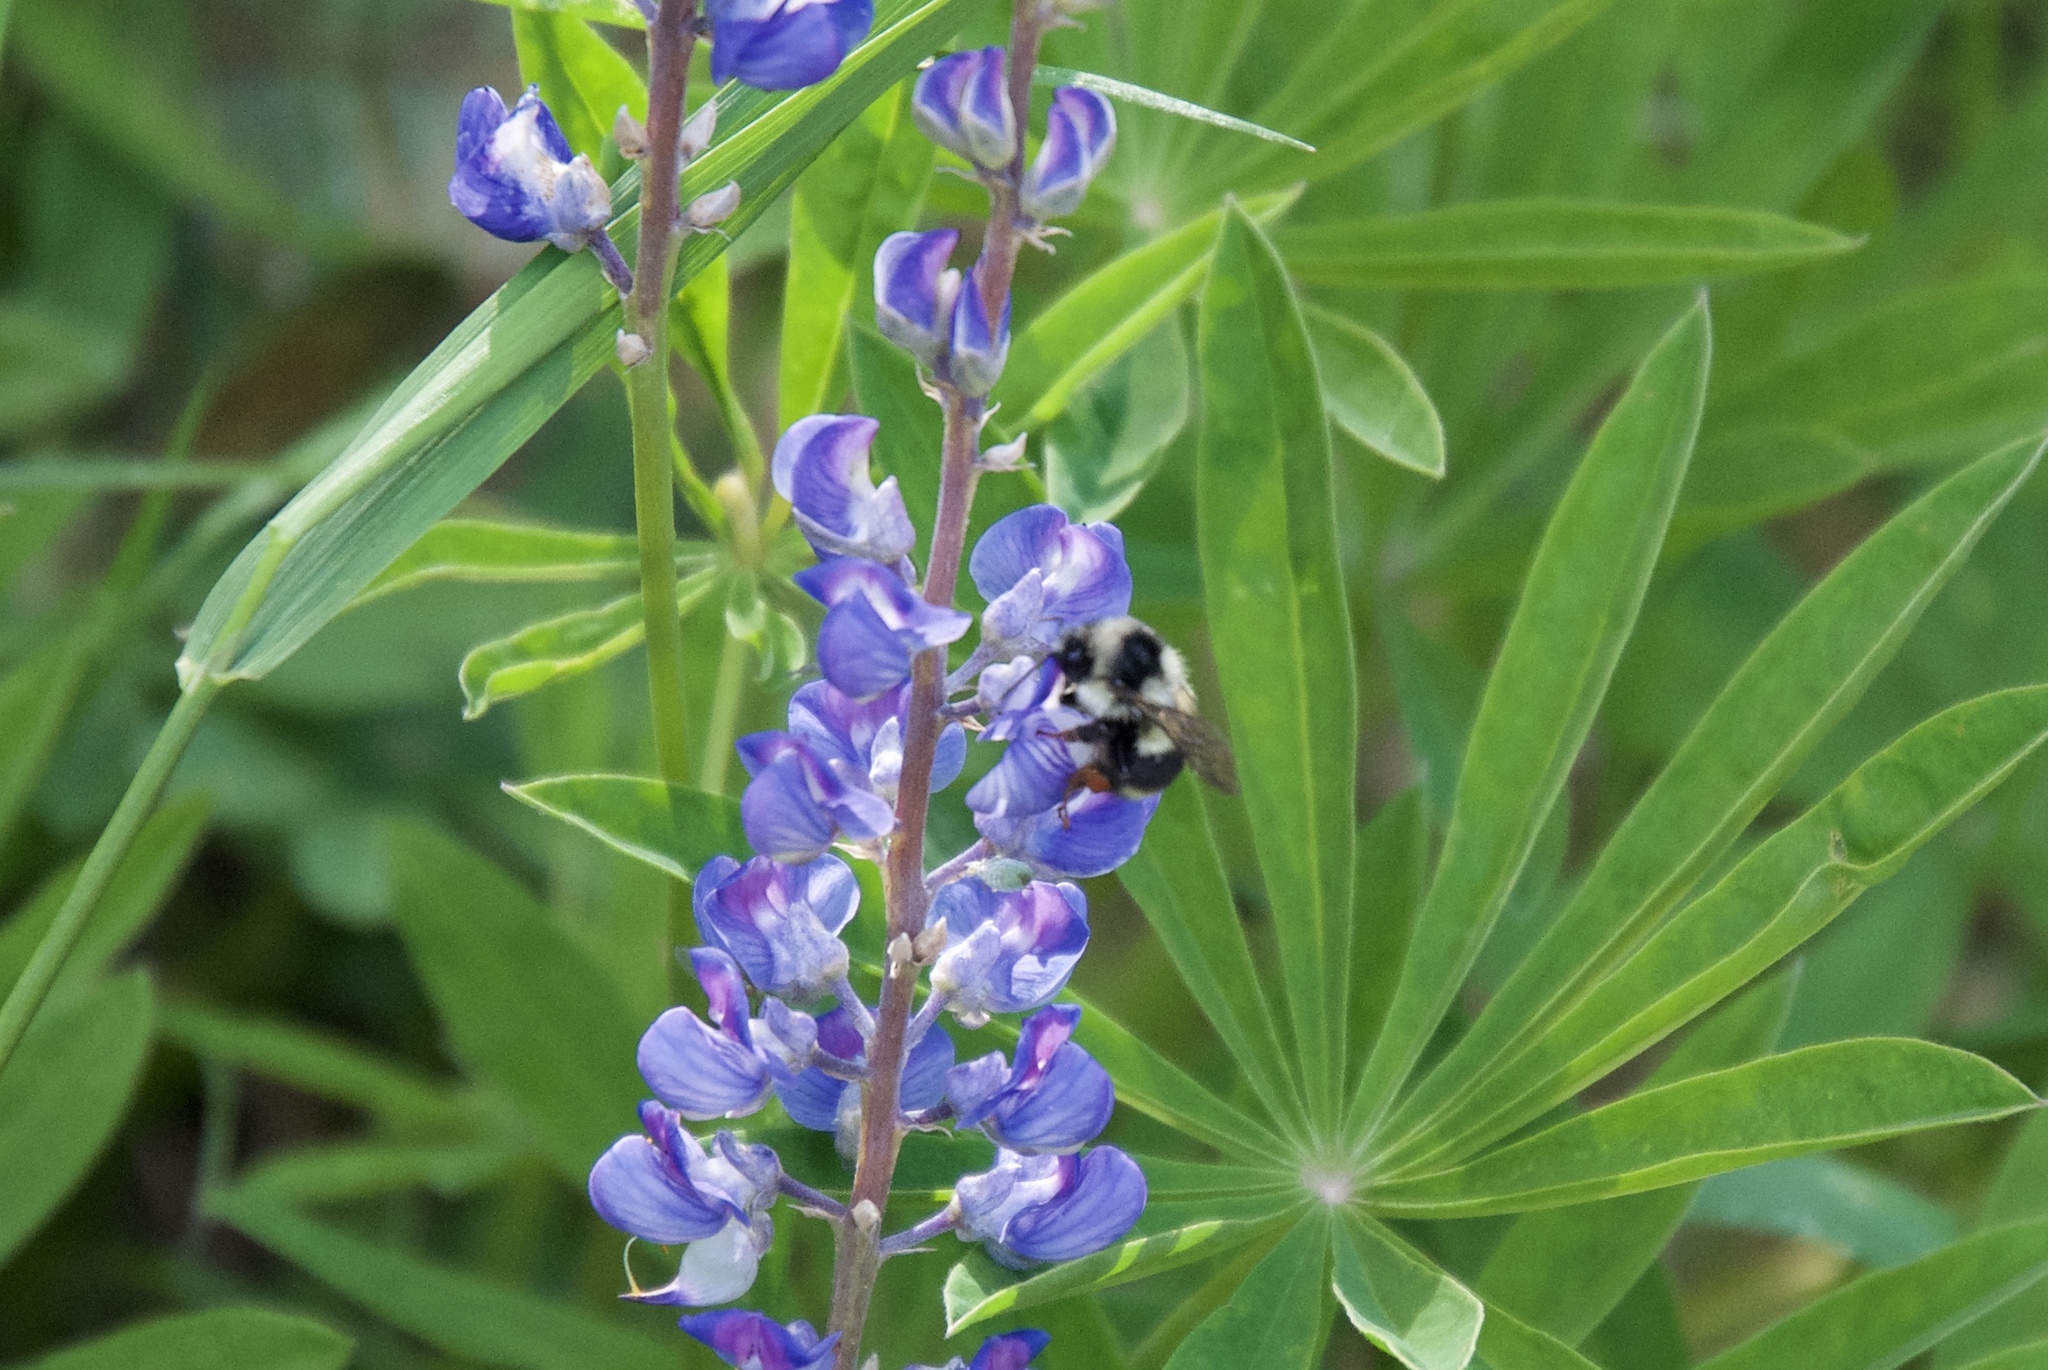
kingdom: Animalia
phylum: Arthropoda
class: Insecta
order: Hymenoptera
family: Apidae
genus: Bombus
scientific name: Bombus vancouverensis
